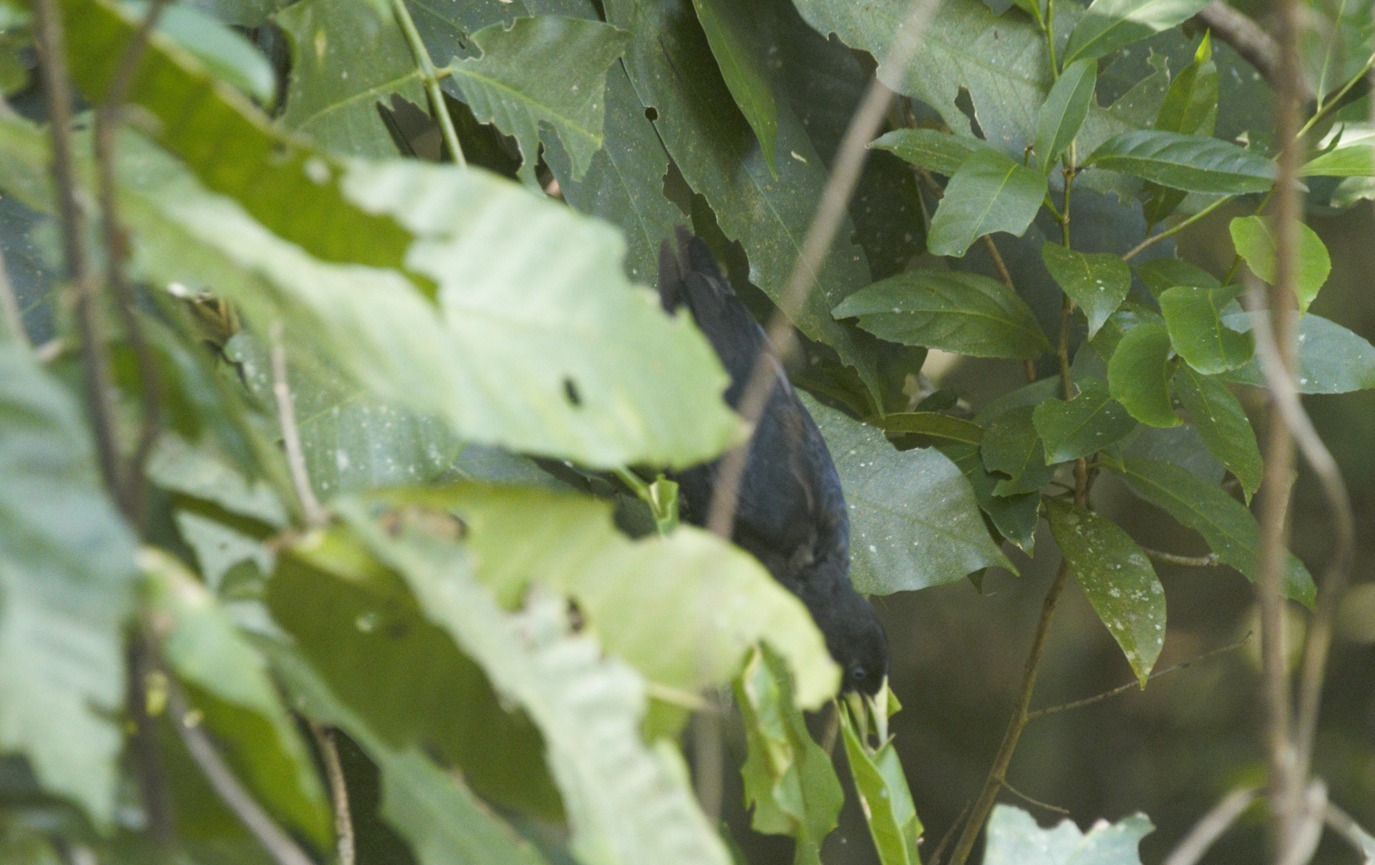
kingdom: Animalia
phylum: Chordata
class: Aves
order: Passeriformes
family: Icteridae
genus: Cacicus
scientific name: Cacicus haemorrhous
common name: Red-rumped cacique
